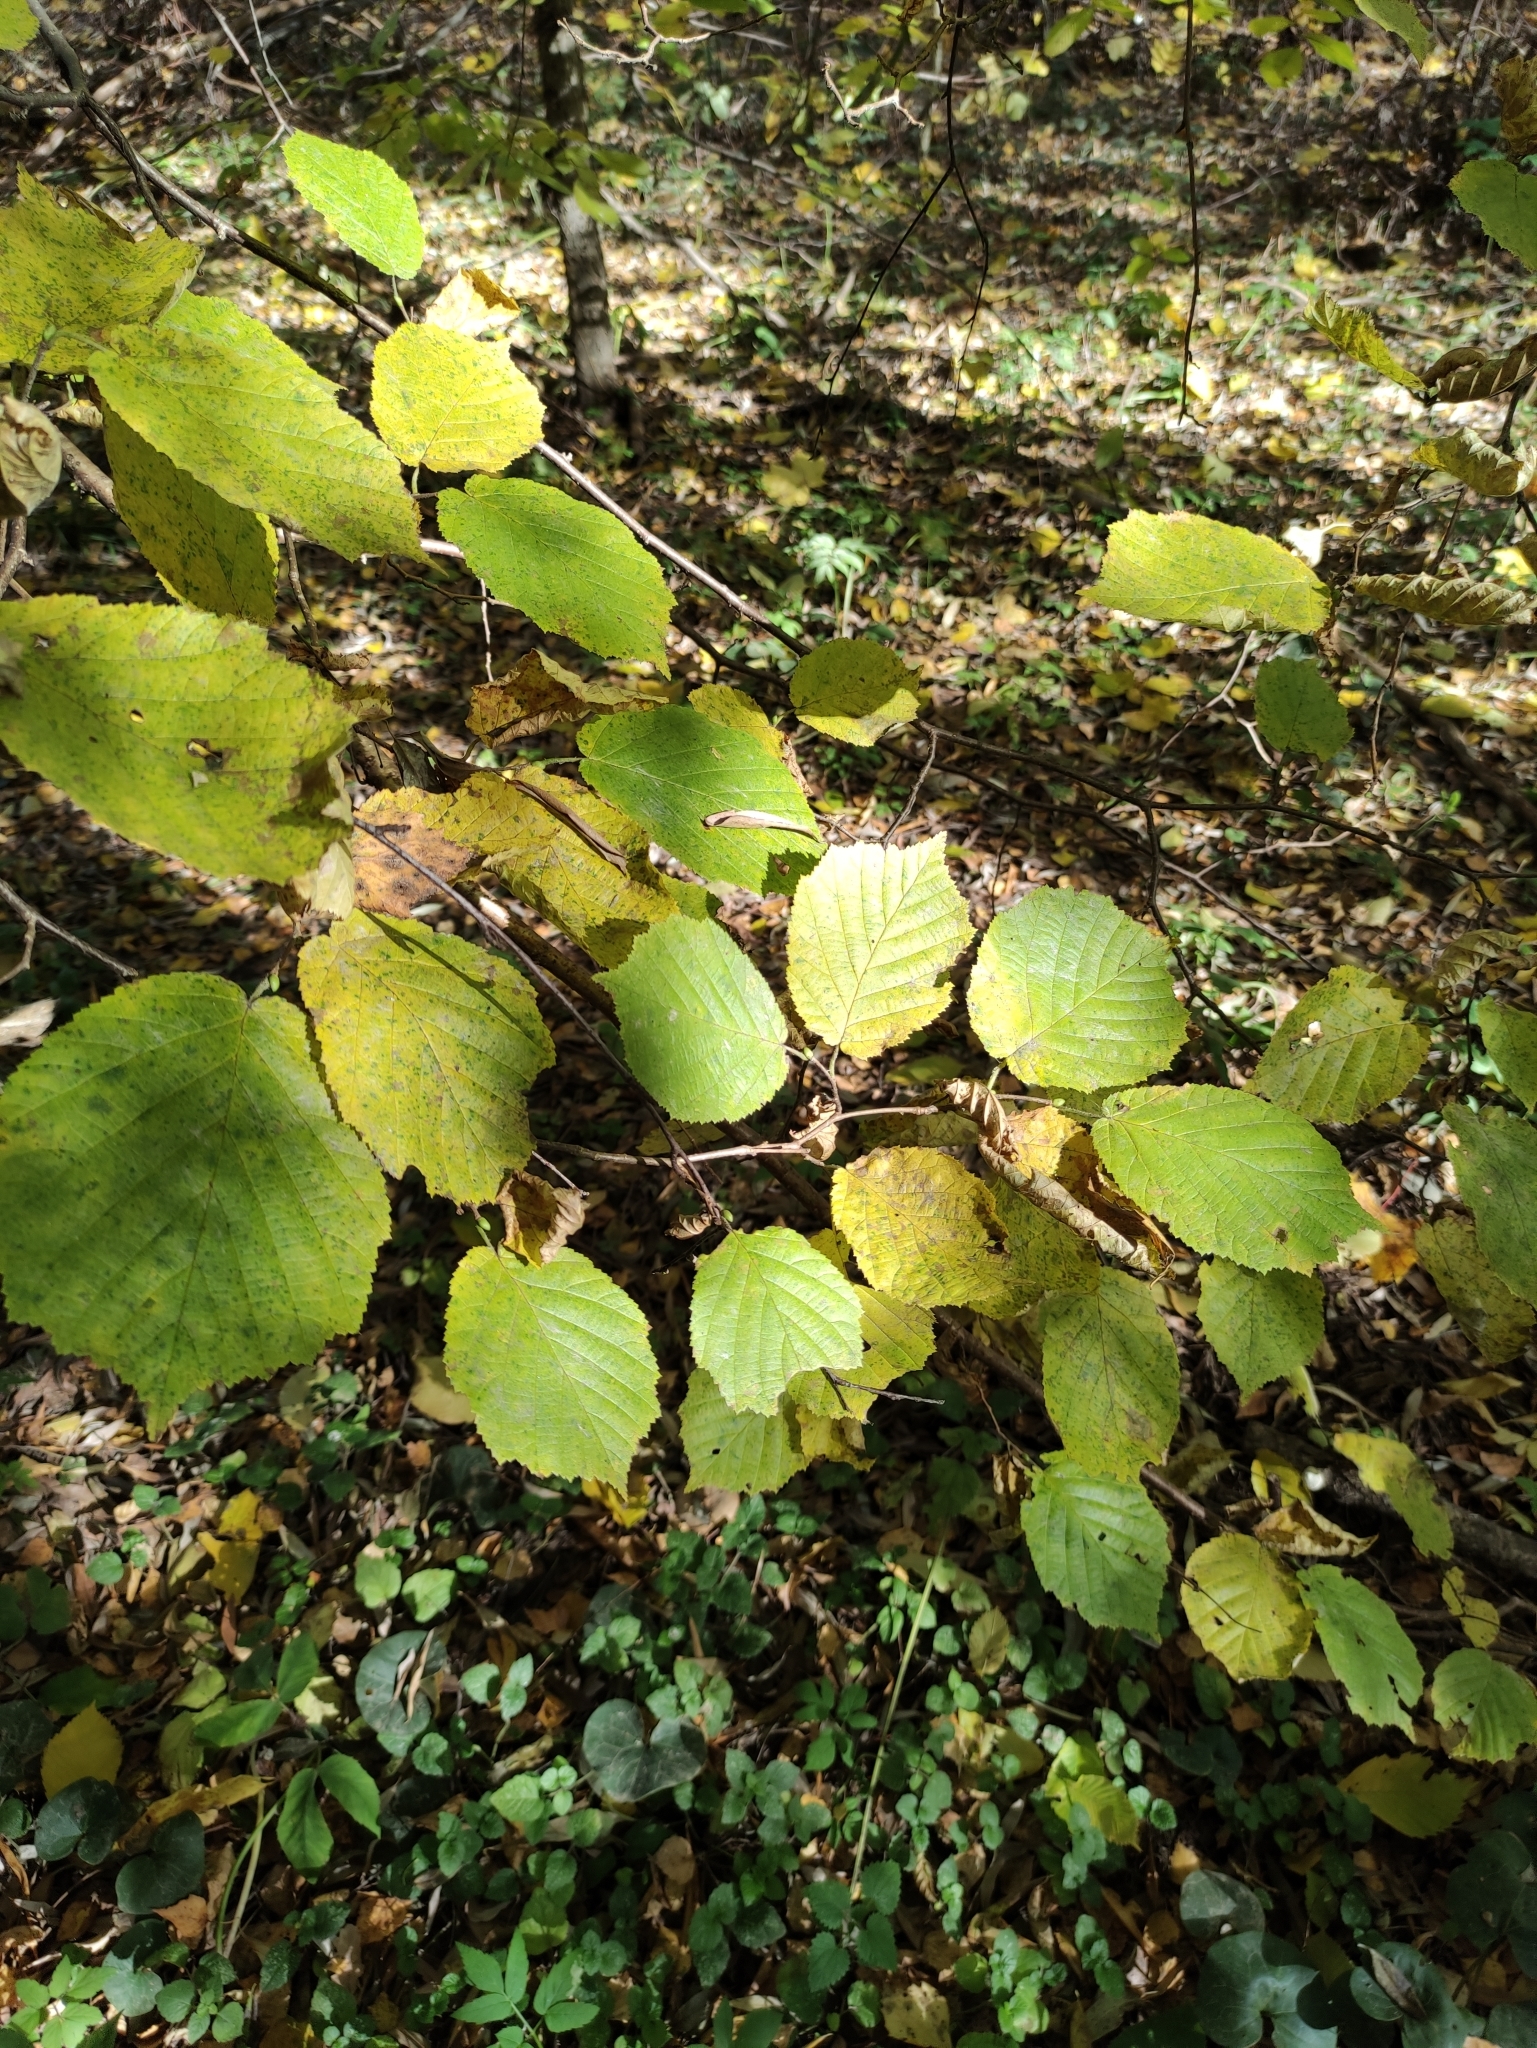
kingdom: Plantae
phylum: Tracheophyta
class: Magnoliopsida
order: Fagales
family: Betulaceae
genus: Corylus
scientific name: Corylus avellana
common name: European hazel
